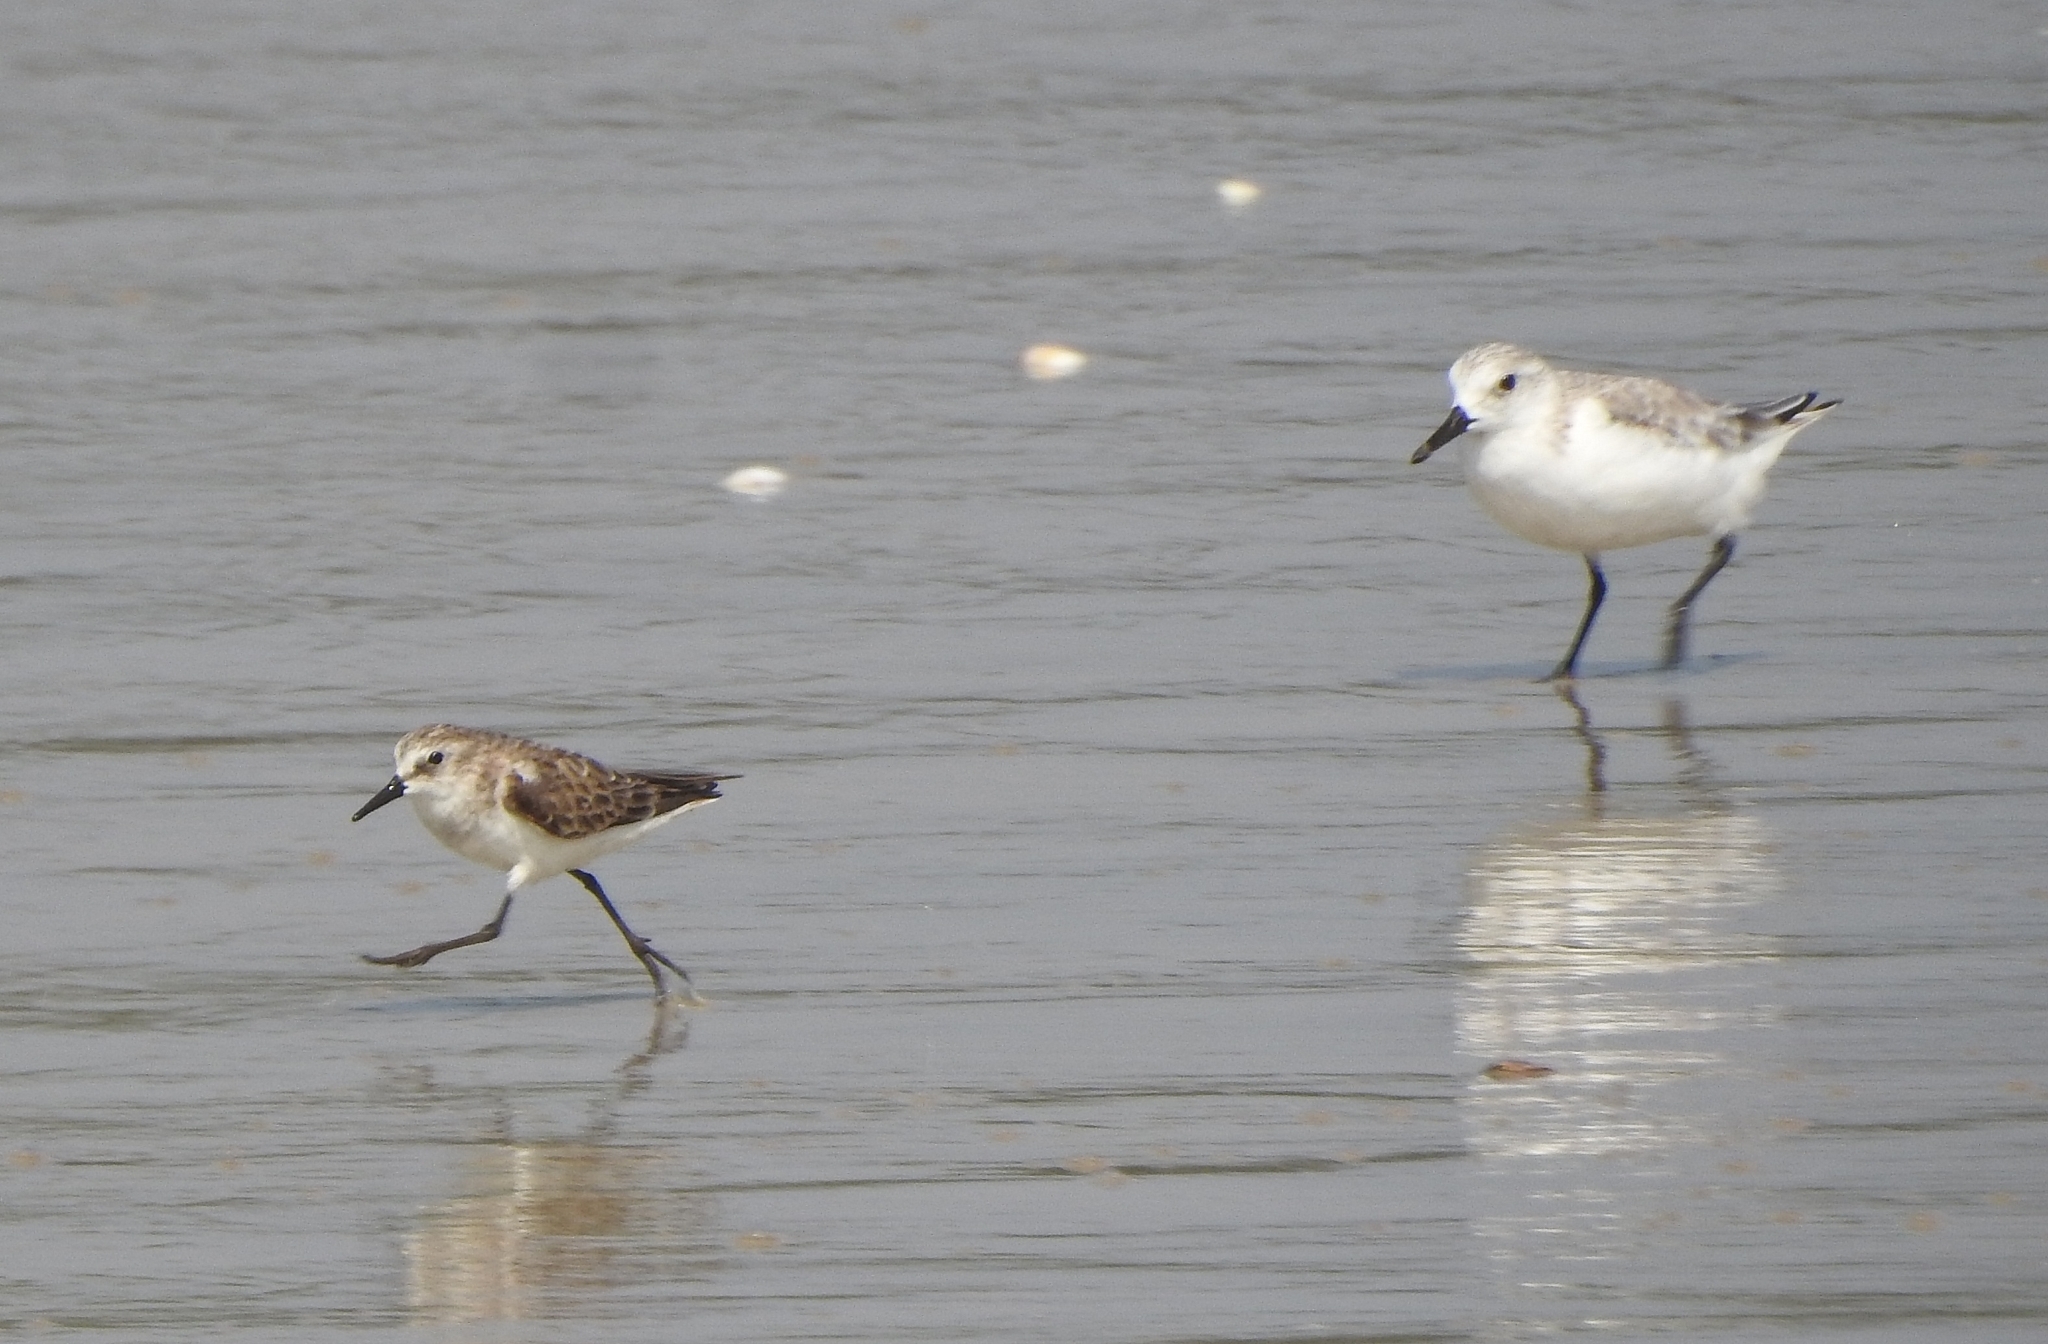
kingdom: Animalia
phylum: Chordata
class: Aves
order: Charadriiformes
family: Scolopacidae
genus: Calidris
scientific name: Calidris minuta
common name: Little stint
